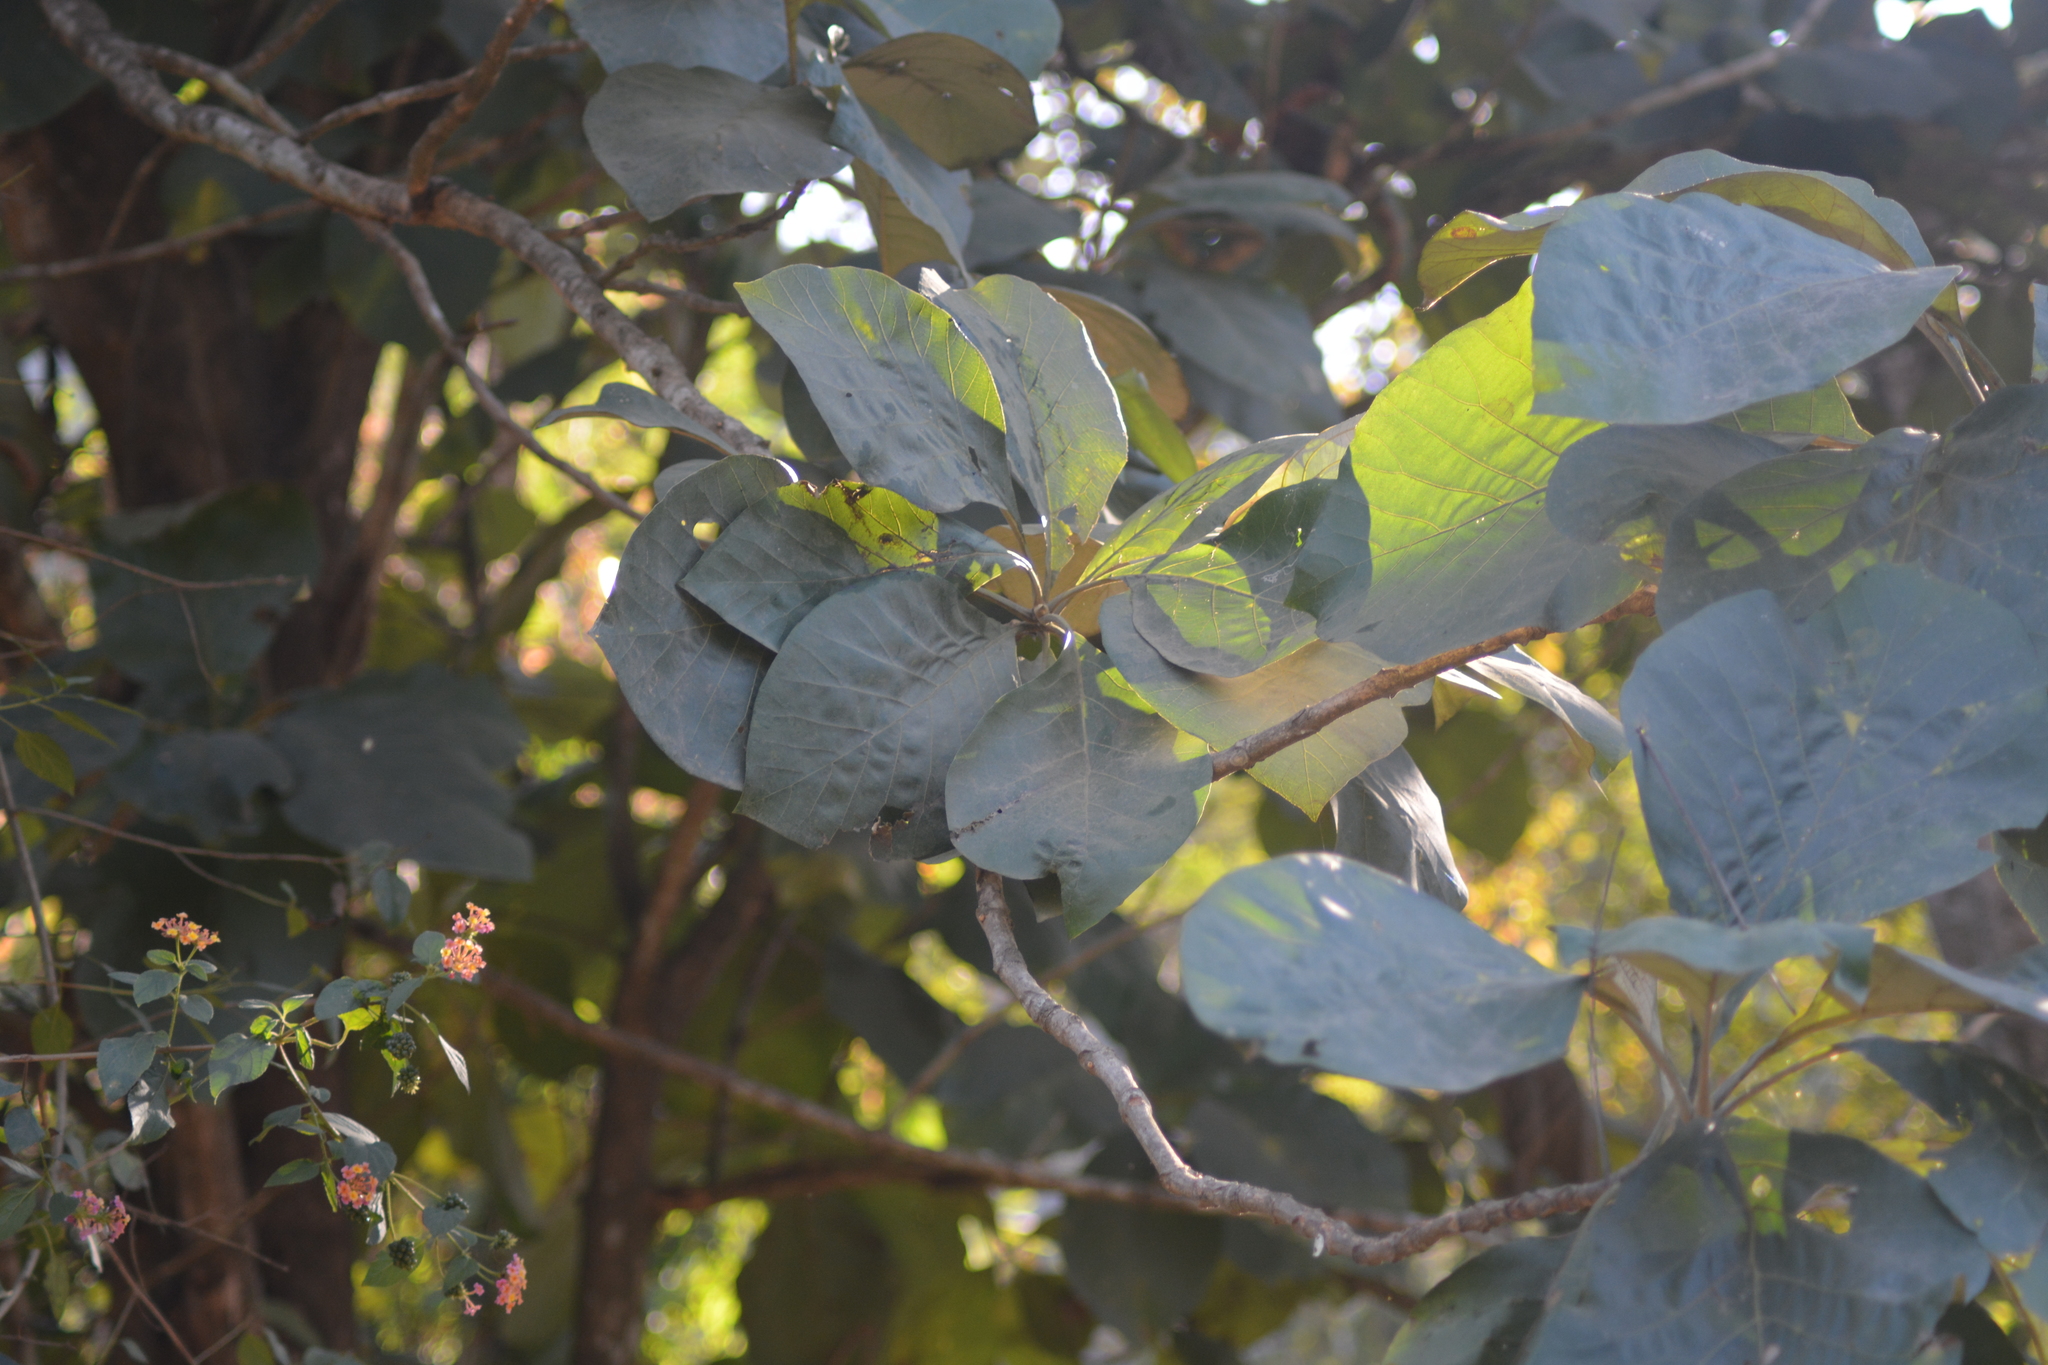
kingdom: Plantae
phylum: Tracheophyta
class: Magnoliopsida
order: Lamiales
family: Lamiaceae
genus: Tectona
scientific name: Tectona grandis
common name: Teak
